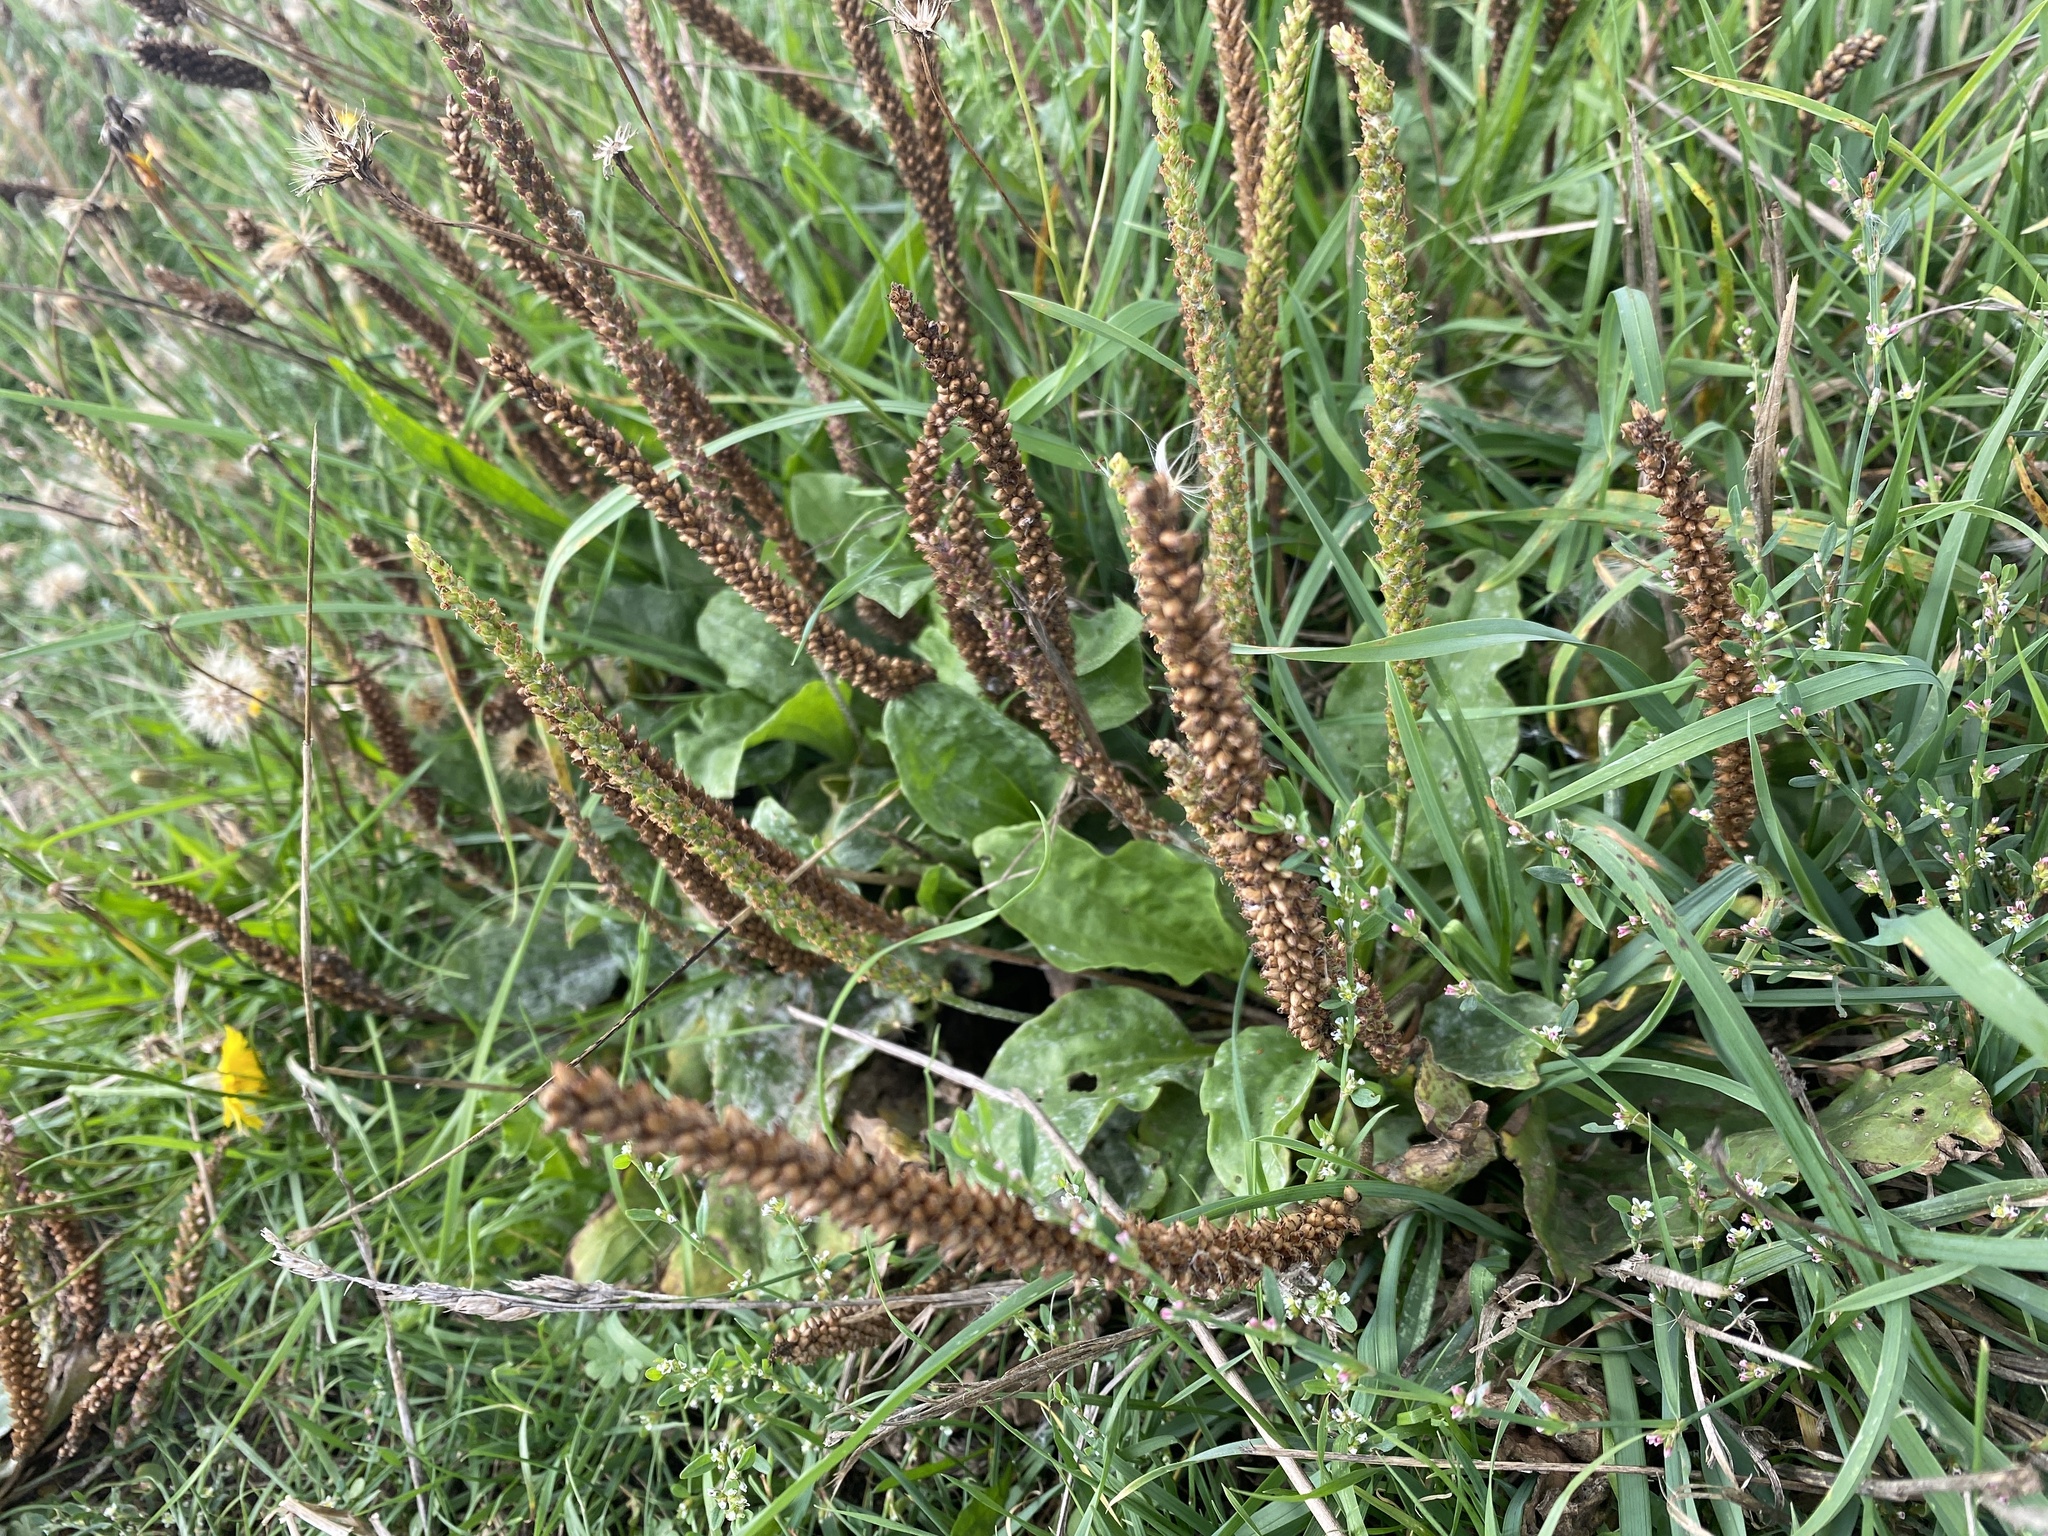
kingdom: Plantae
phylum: Tracheophyta
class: Magnoliopsida
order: Lamiales
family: Plantaginaceae
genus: Plantago
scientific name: Plantago major
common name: Common plantain
